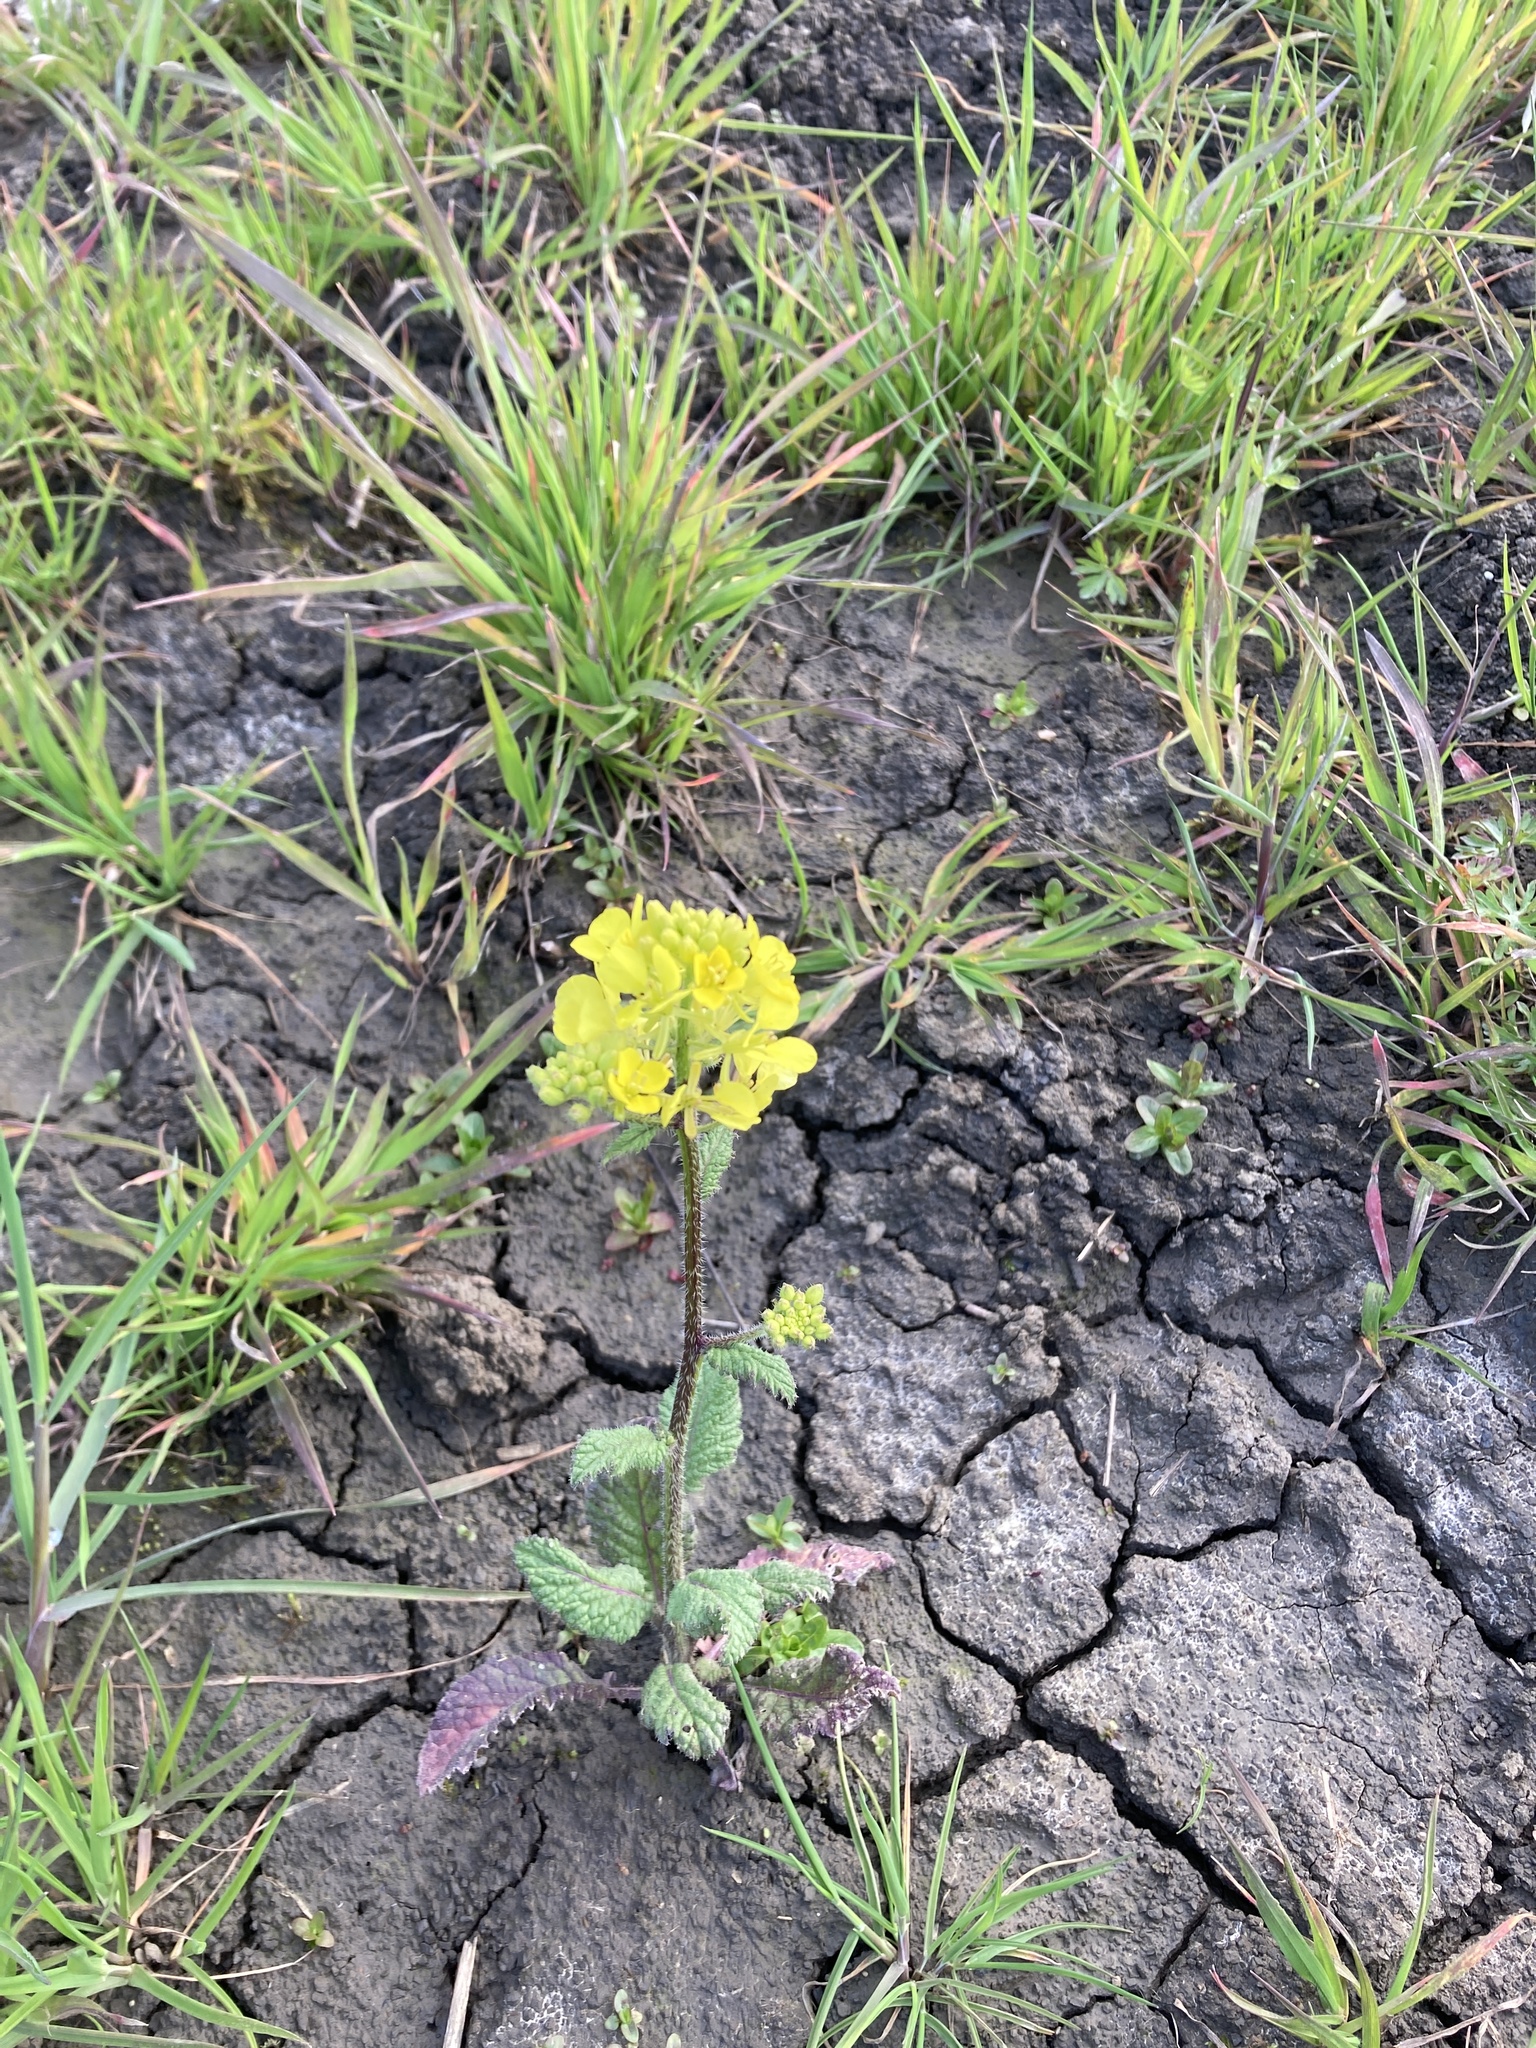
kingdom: Plantae
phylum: Tracheophyta
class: Magnoliopsida
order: Brassicales
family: Brassicaceae
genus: Sinapis
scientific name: Sinapis arvensis
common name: Charlock
